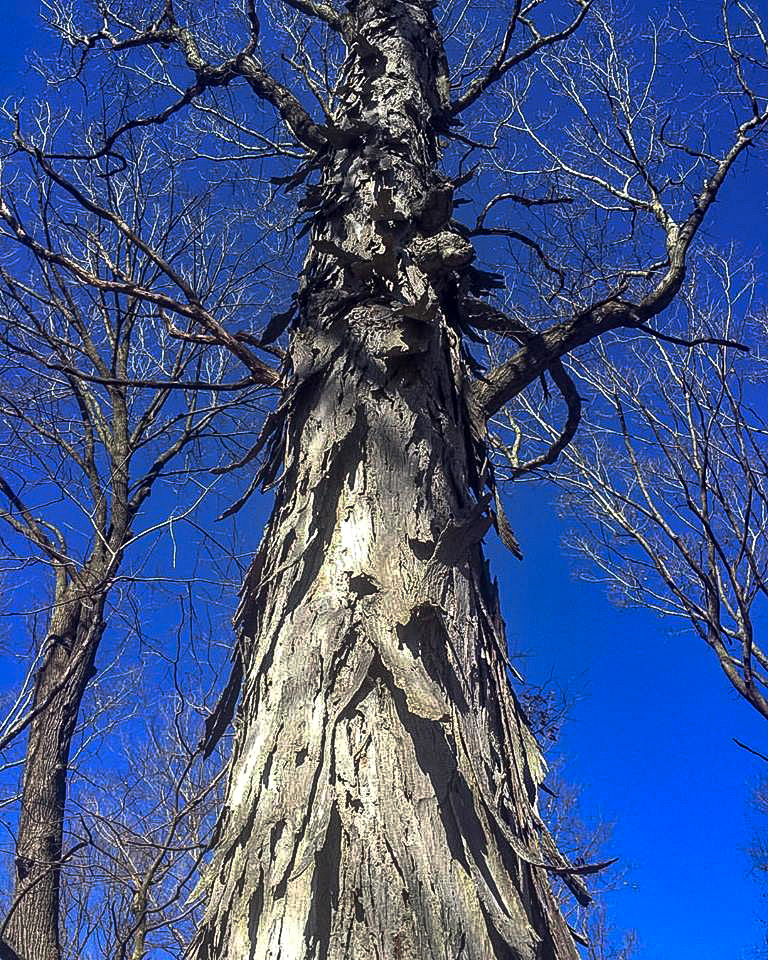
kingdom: Plantae
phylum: Tracheophyta
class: Magnoliopsida
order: Fagales
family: Juglandaceae
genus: Carya
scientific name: Carya ovata
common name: Shagbark hickory
